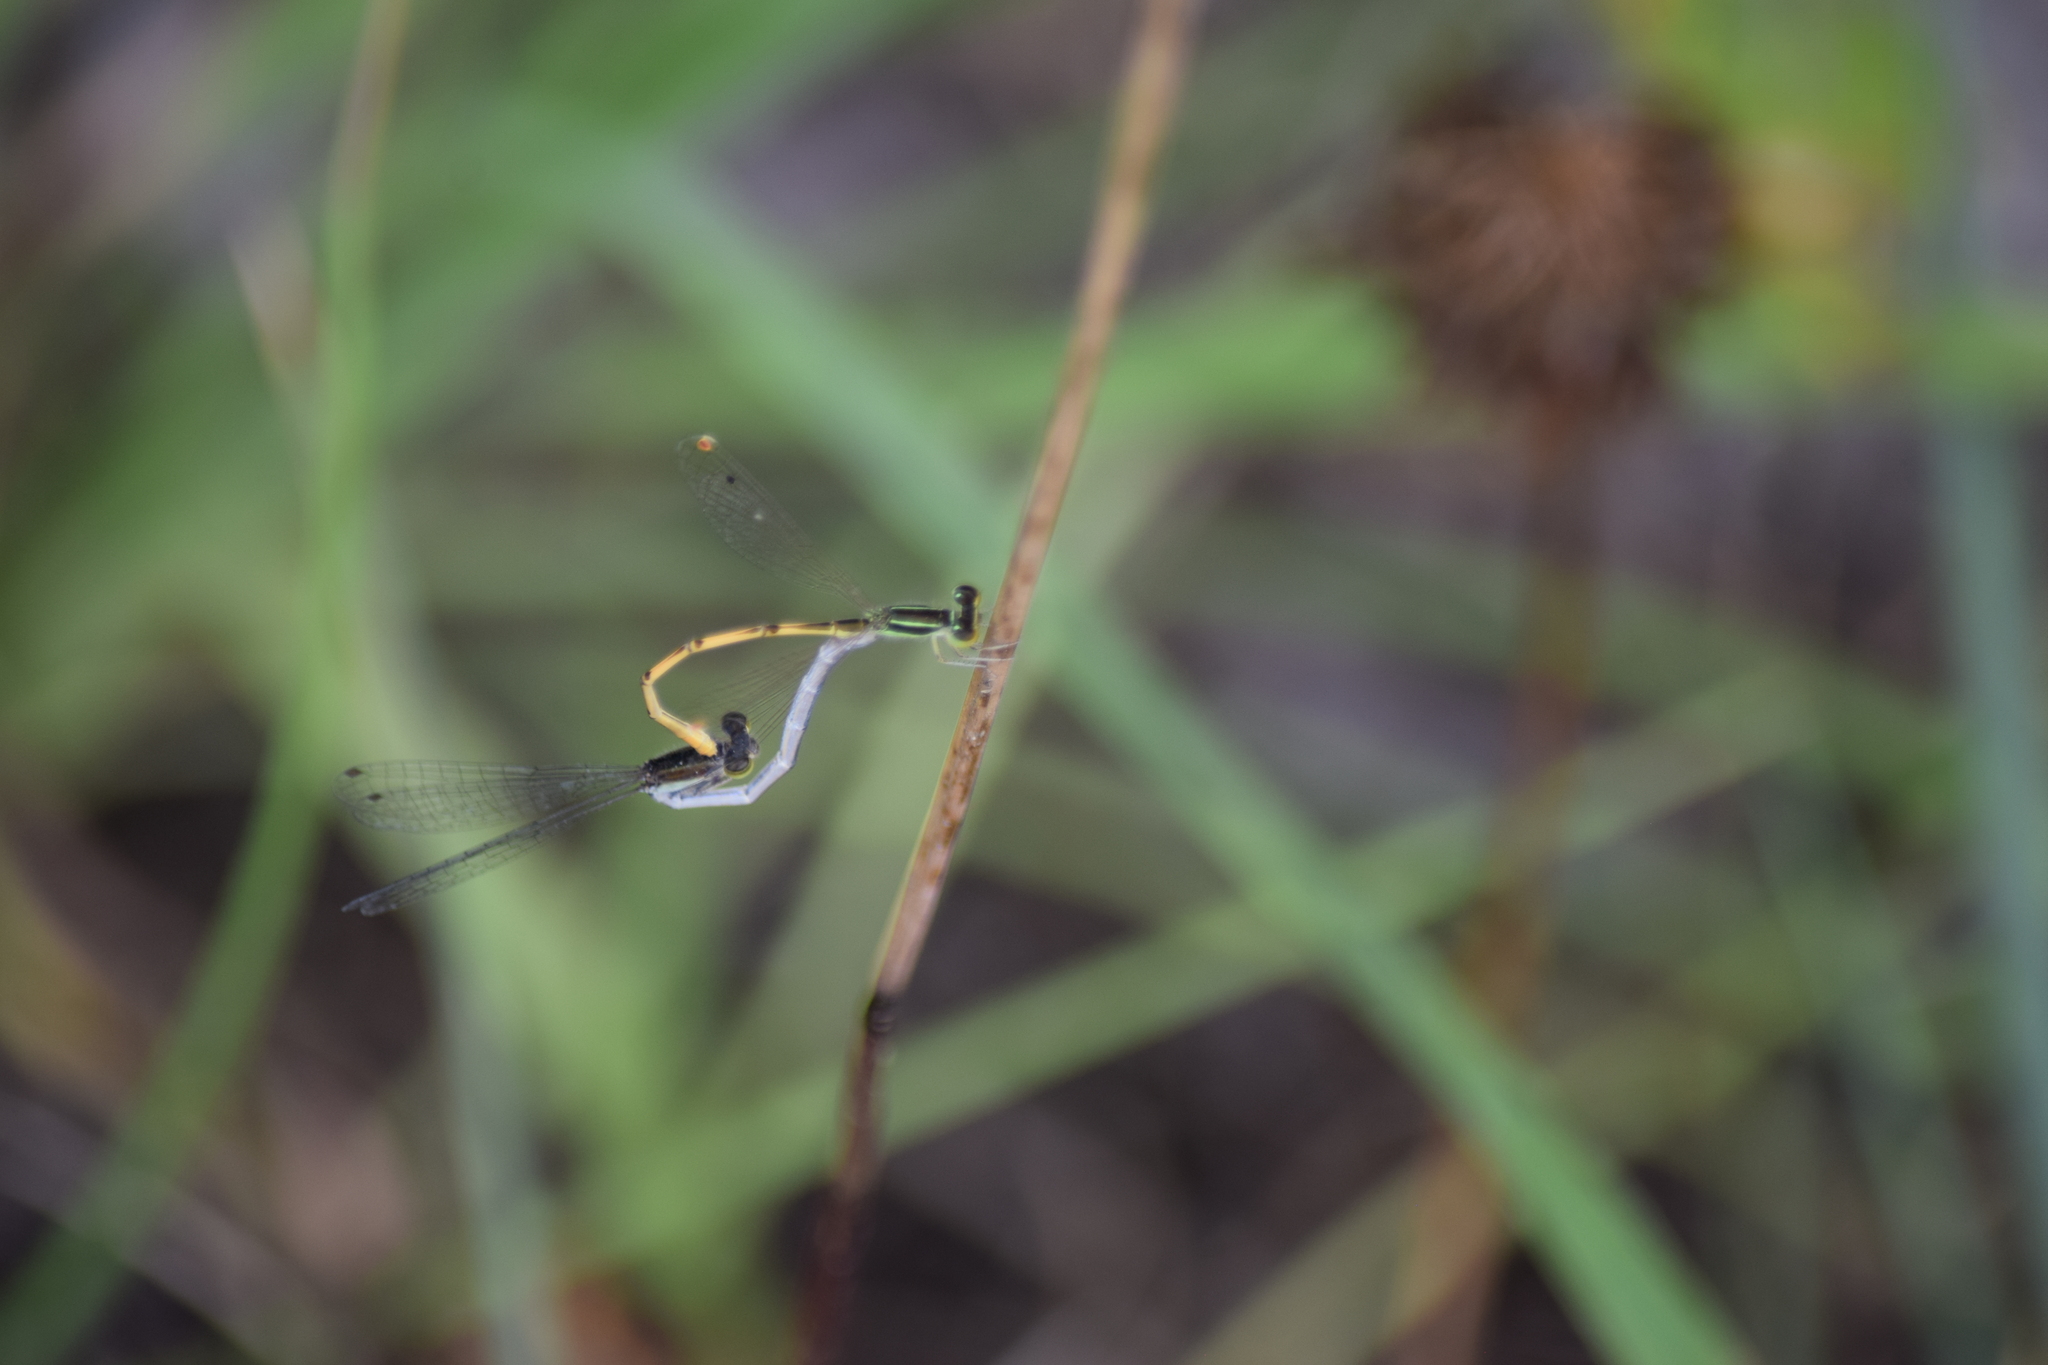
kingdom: Animalia
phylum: Arthropoda
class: Insecta
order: Odonata
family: Coenagrionidae
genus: Ischnura
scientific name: Ischnura hastata
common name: Citrine forktail
